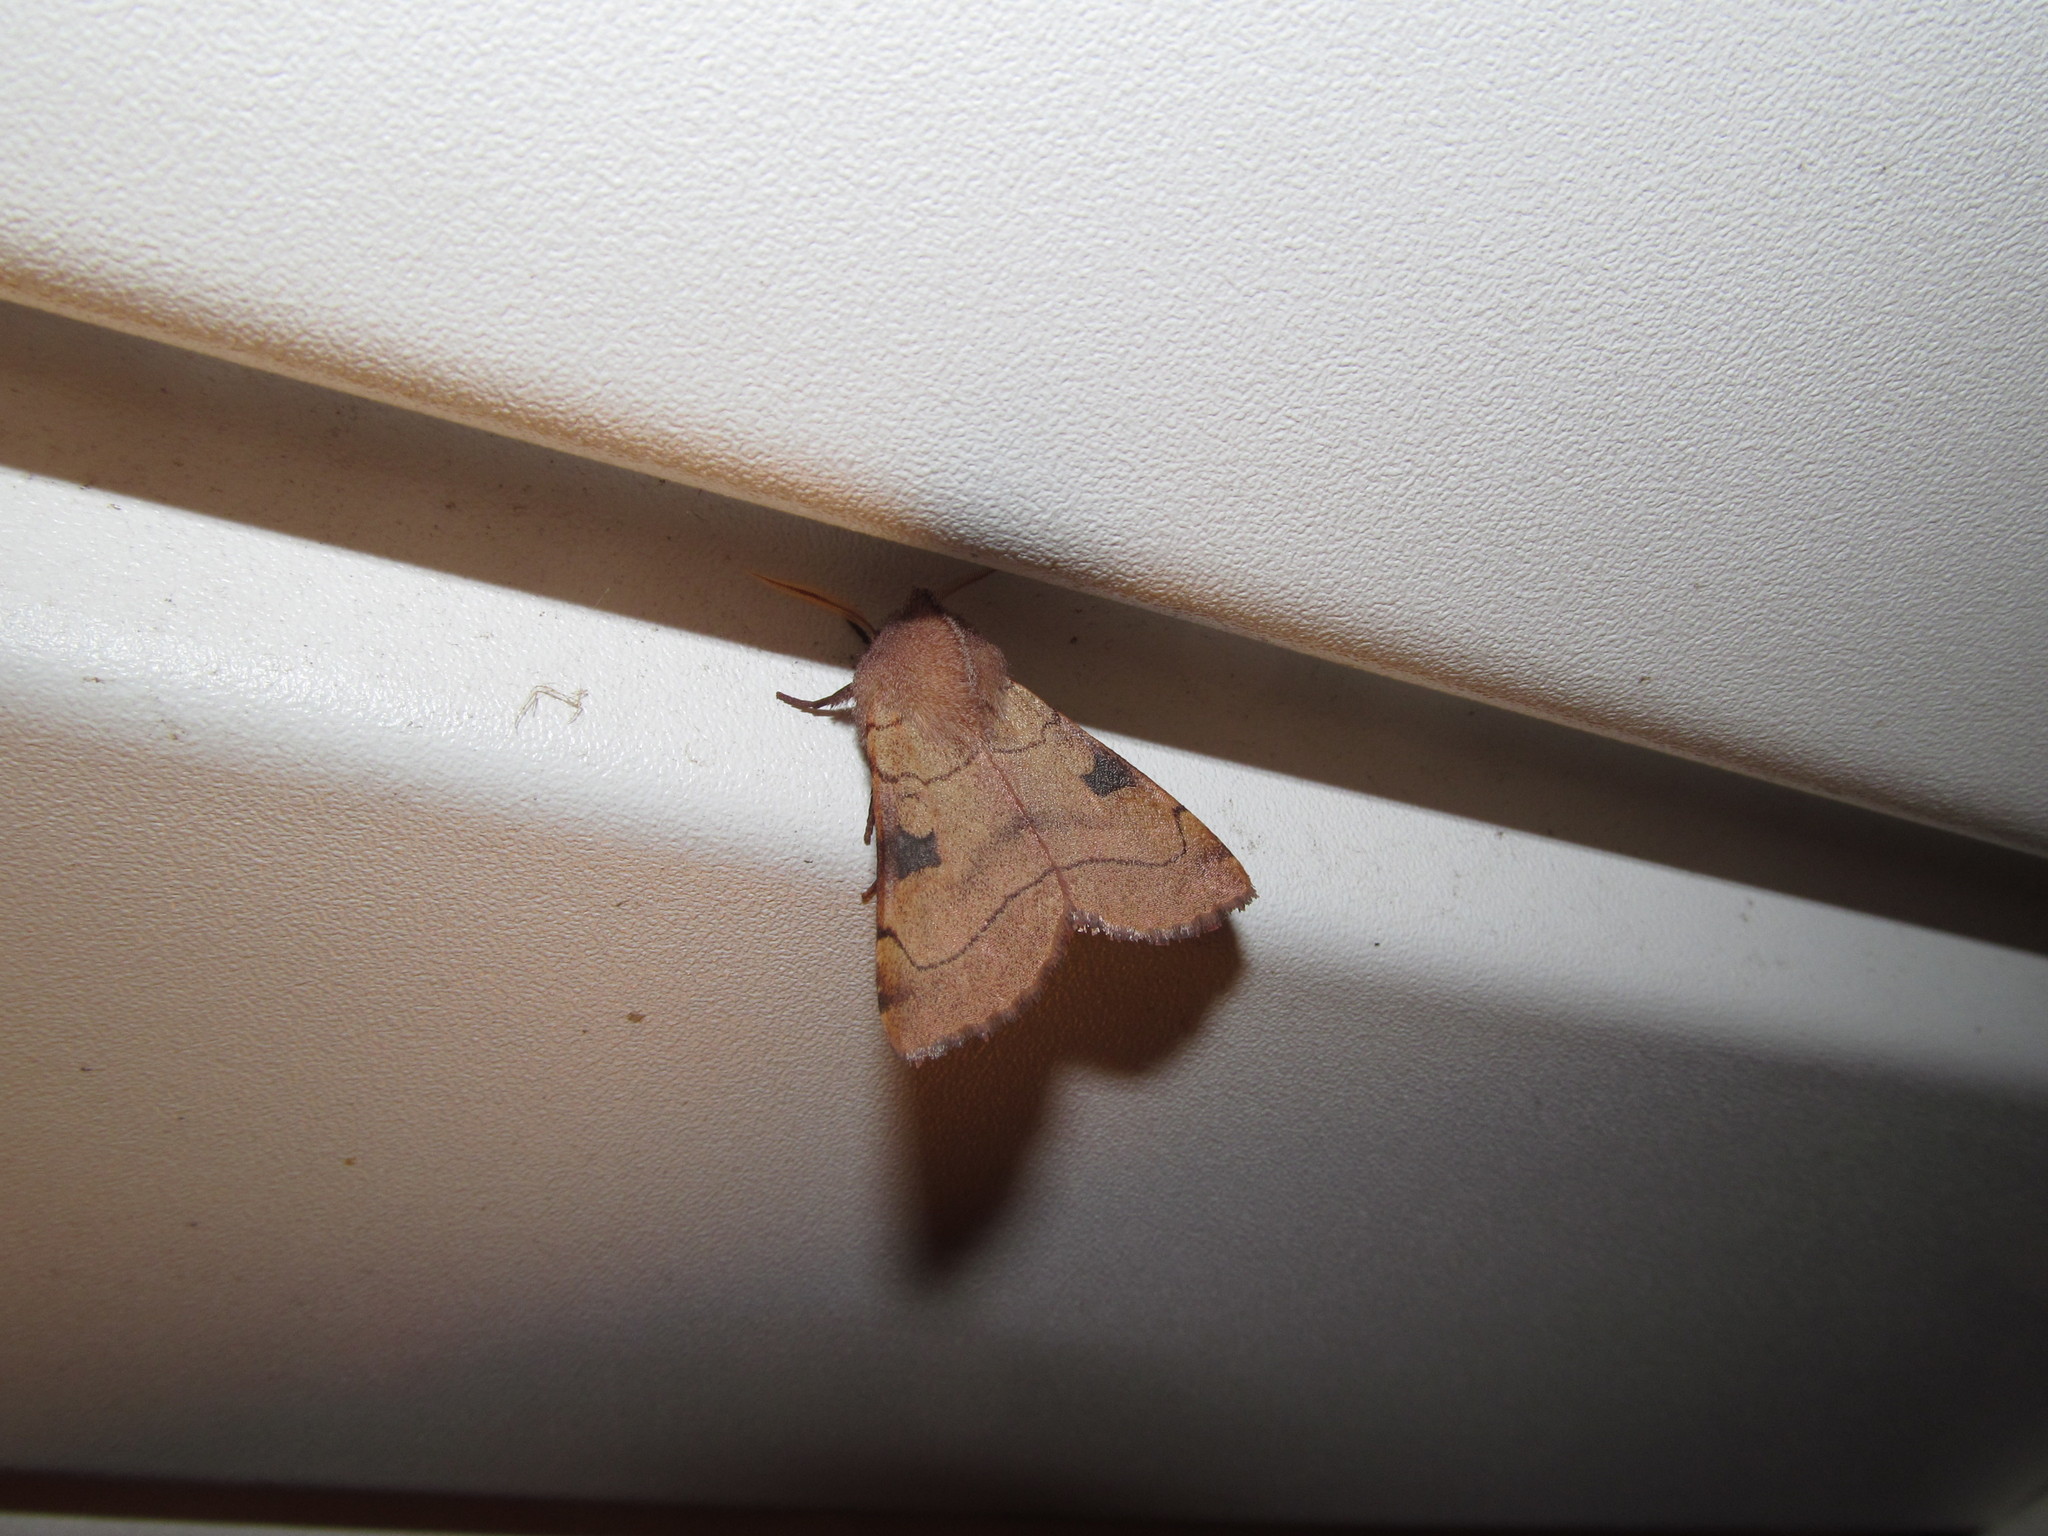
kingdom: Animalia
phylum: Arthropoda
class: Insecta
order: Lepidoptera
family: Noctuidae
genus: Choephora
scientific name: Choephora fungorum
